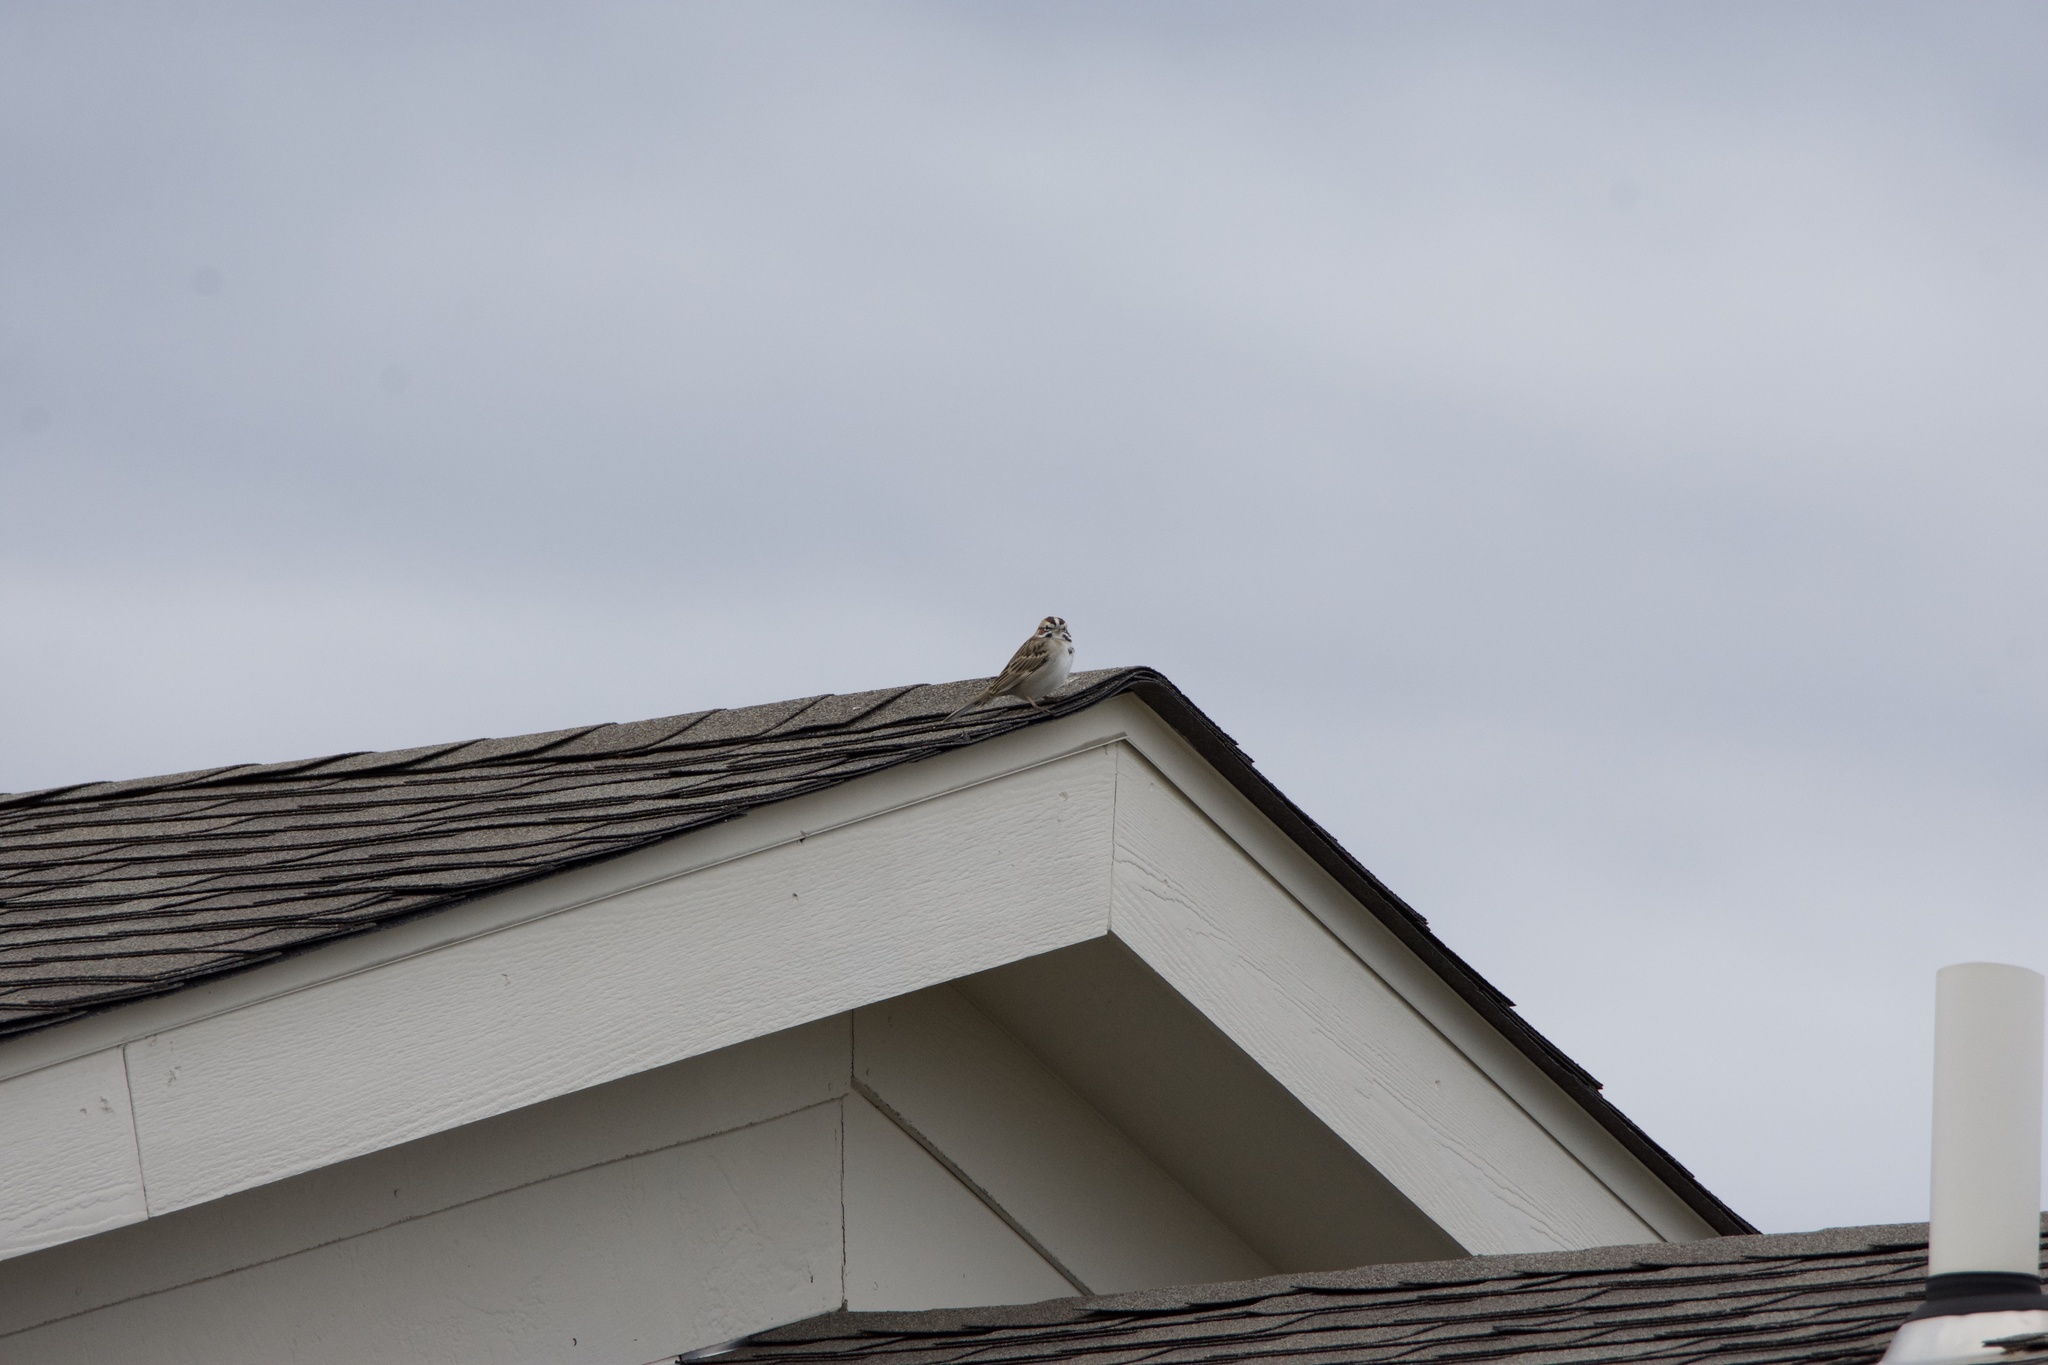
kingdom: Animalia
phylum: Chordata
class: Aves
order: Passeriformes
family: Passerellidae
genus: Chondestes
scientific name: Chondestes grammacus
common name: Lark sparrow
